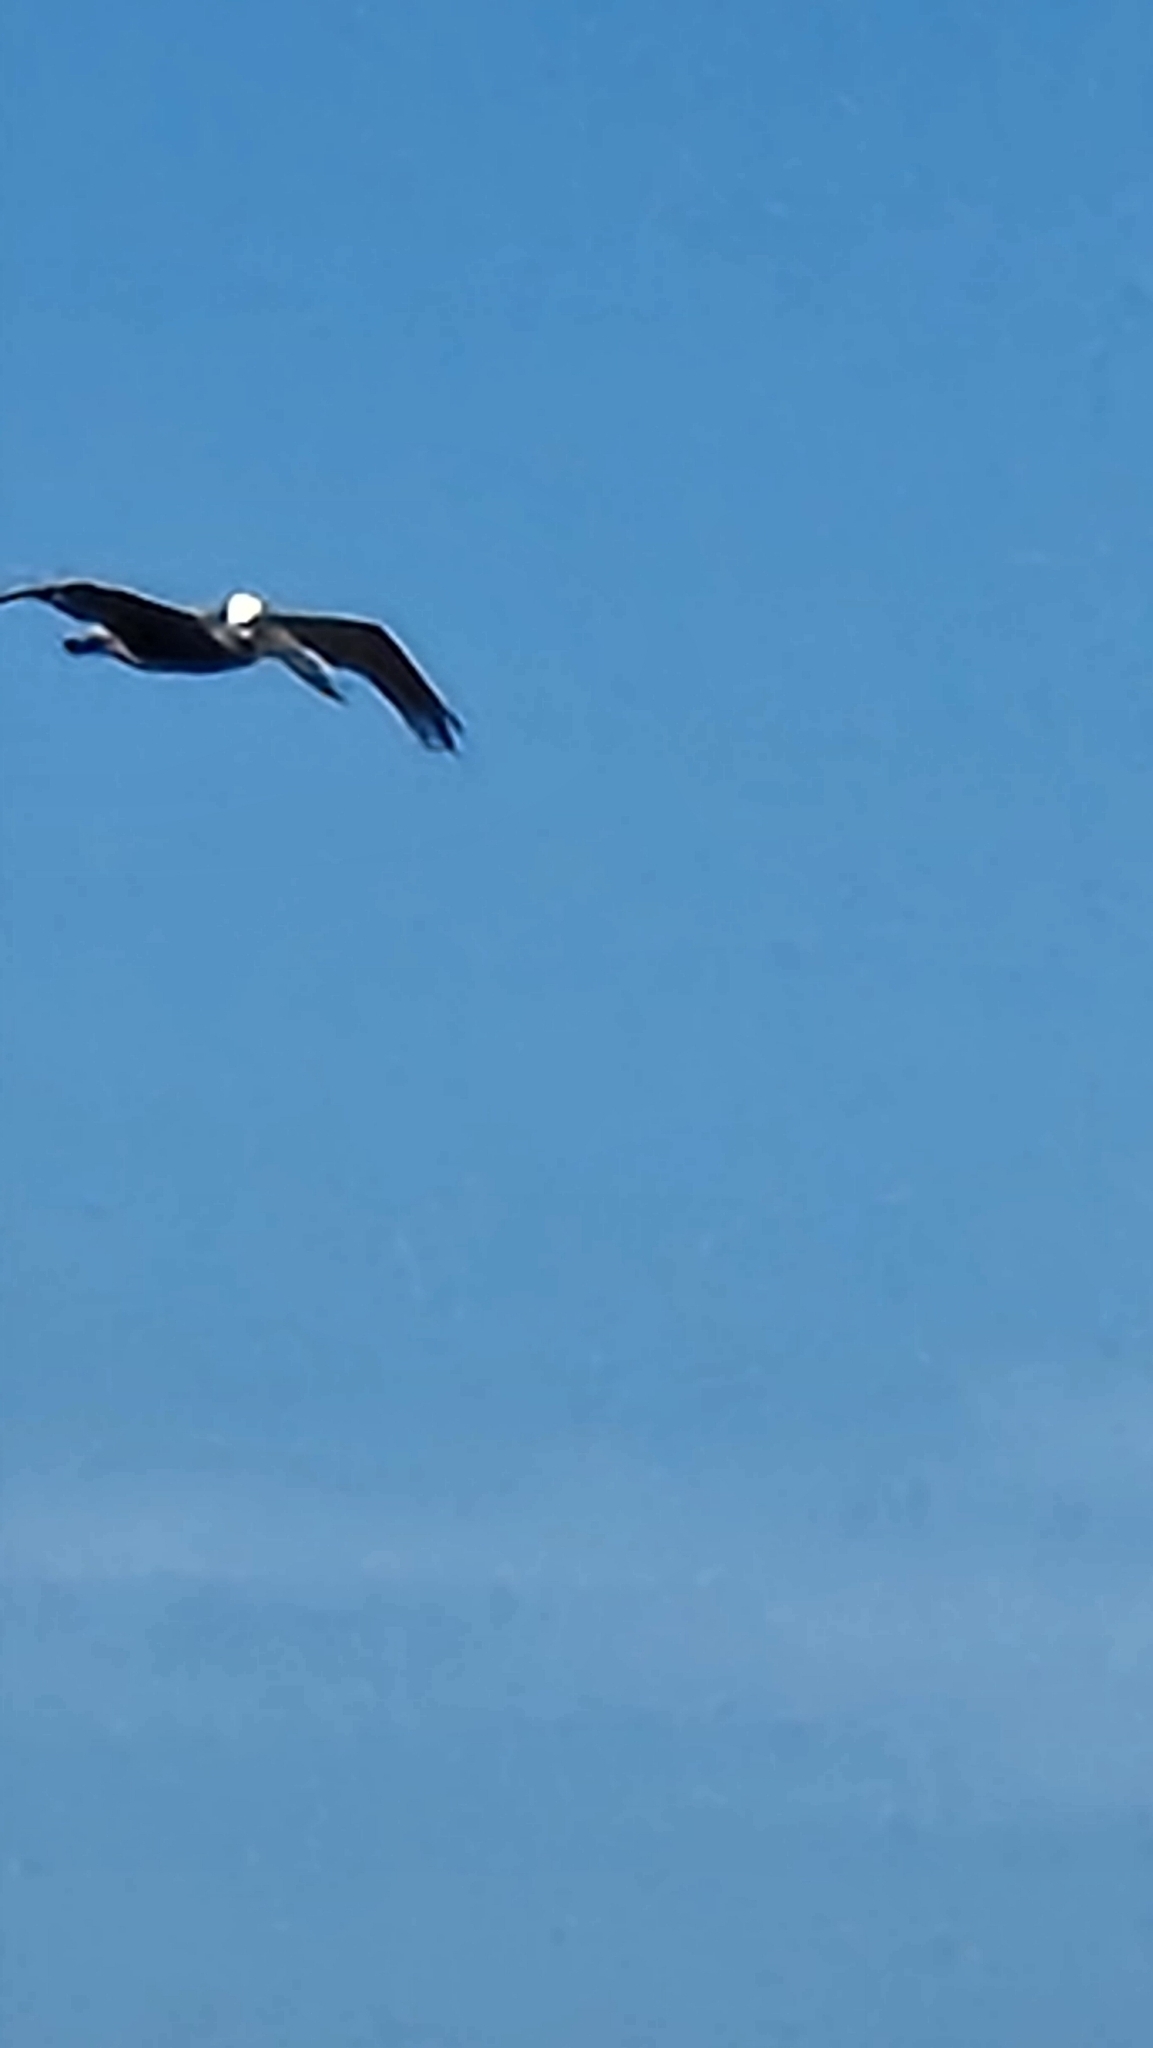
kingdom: Animalia
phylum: Chordata
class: Aves
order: Pelecaniformes
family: Pelecanidae
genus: Pelecanus
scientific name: Pelecanus occidentalis
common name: Brown pelican
